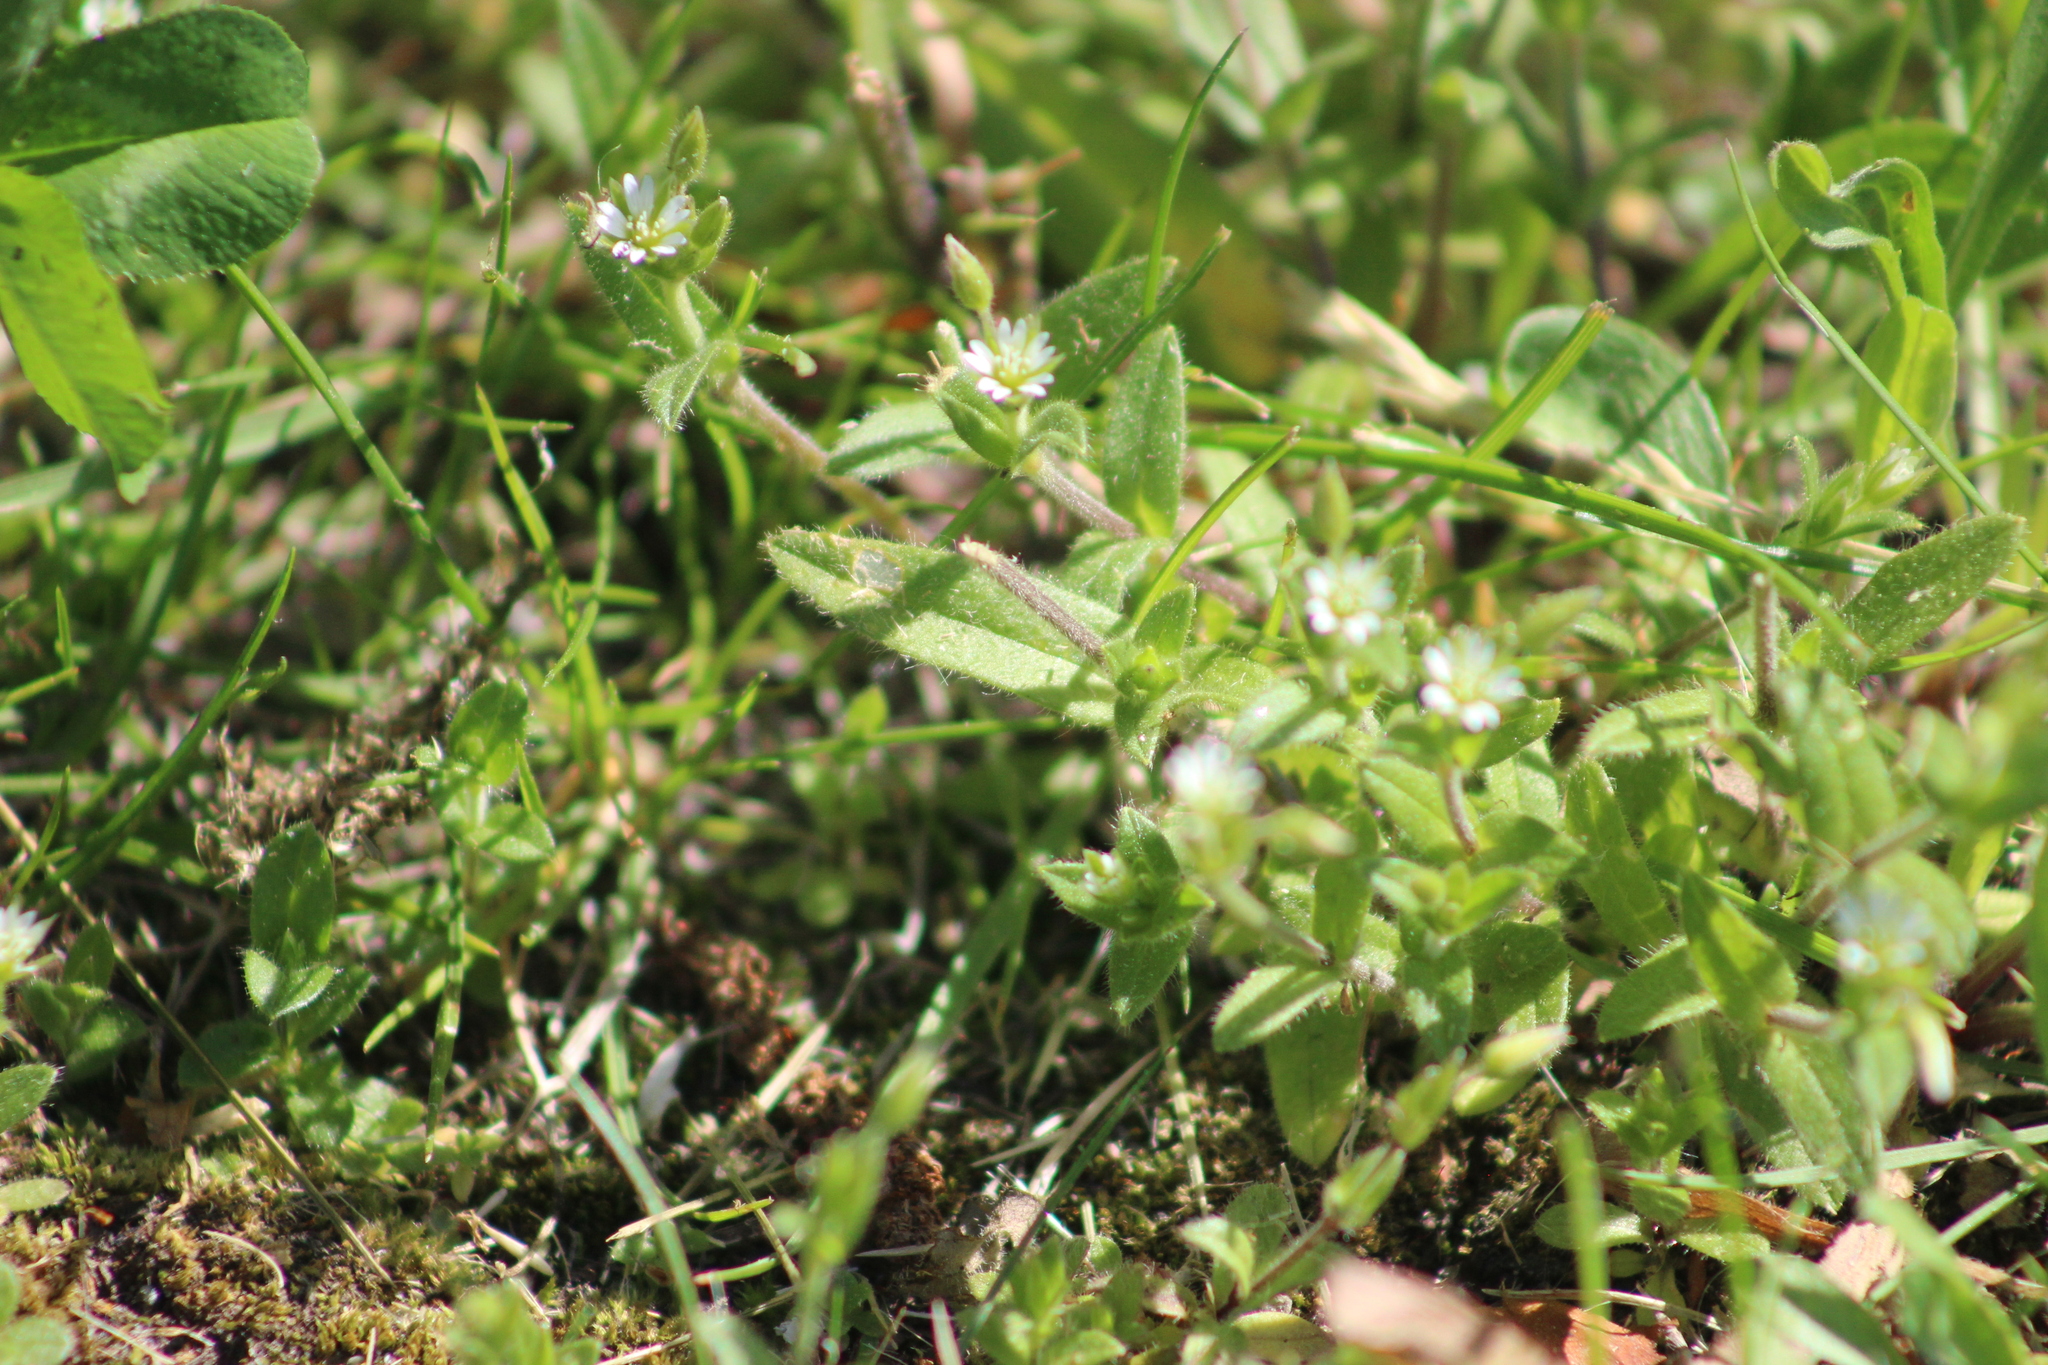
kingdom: Plantae
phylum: Tracheophyta
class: Magnoliopsida
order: Caryophyllales
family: Caryophyllaceae
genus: Cerastium
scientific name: Cerastium holosteoides
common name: Big chickweed
